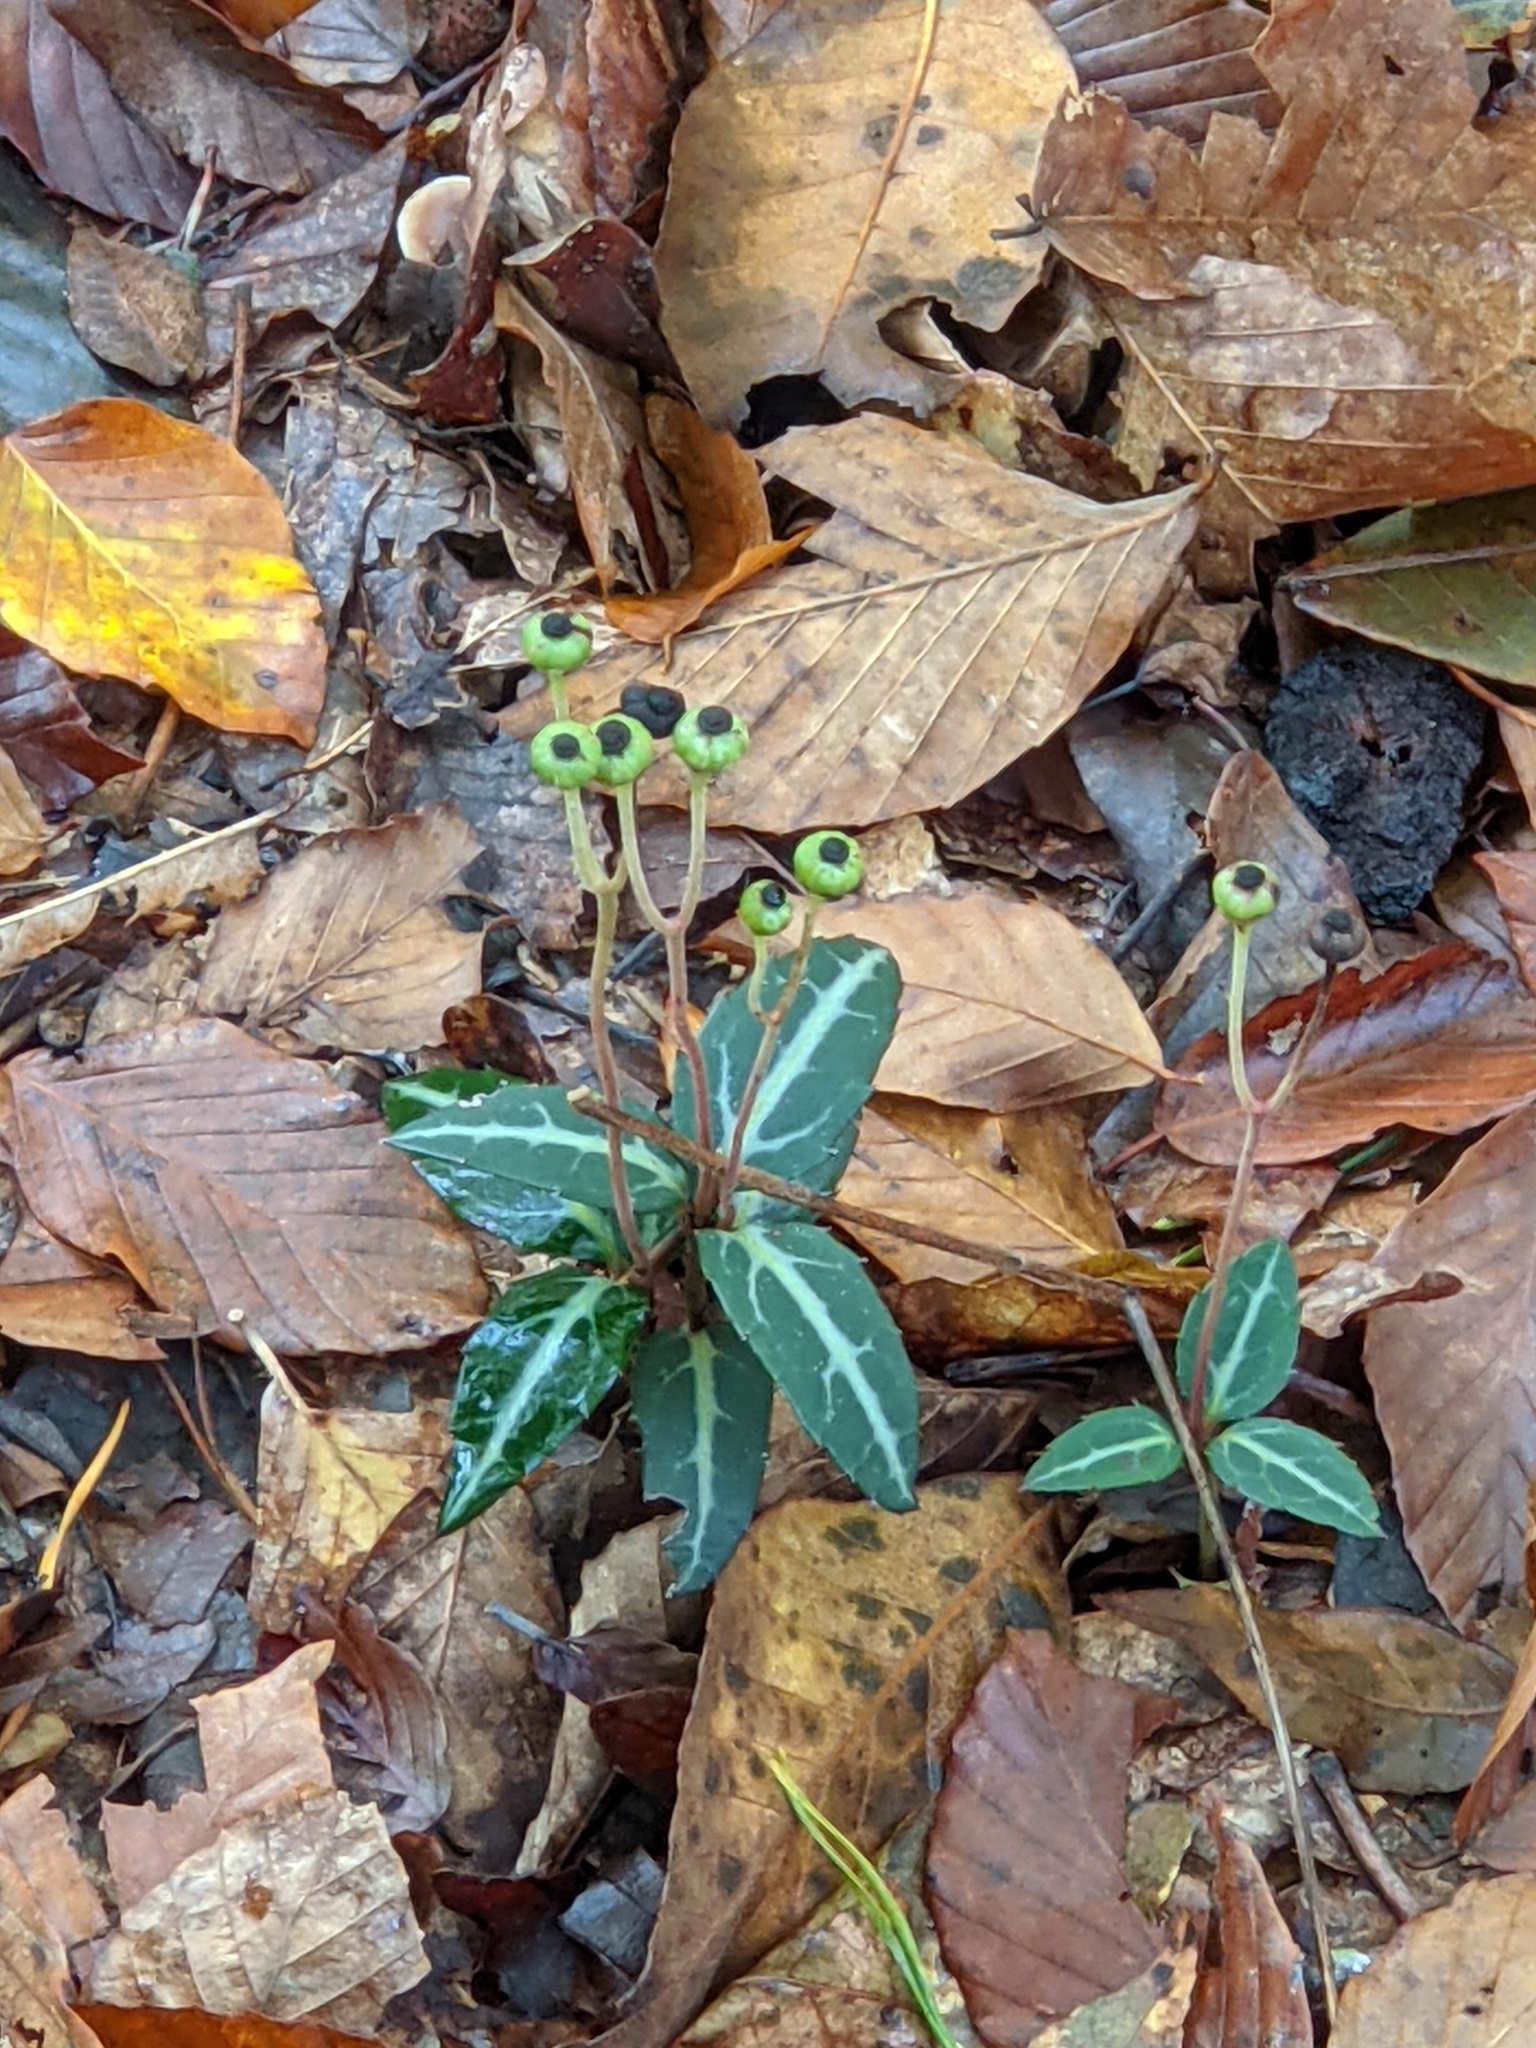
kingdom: Plantae
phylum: Tracheophyta
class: Magnoliopsida
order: Ericales
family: Ericaceae
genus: Chimaphila
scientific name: Chimaphila maculata
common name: Spotted pipsissewa
